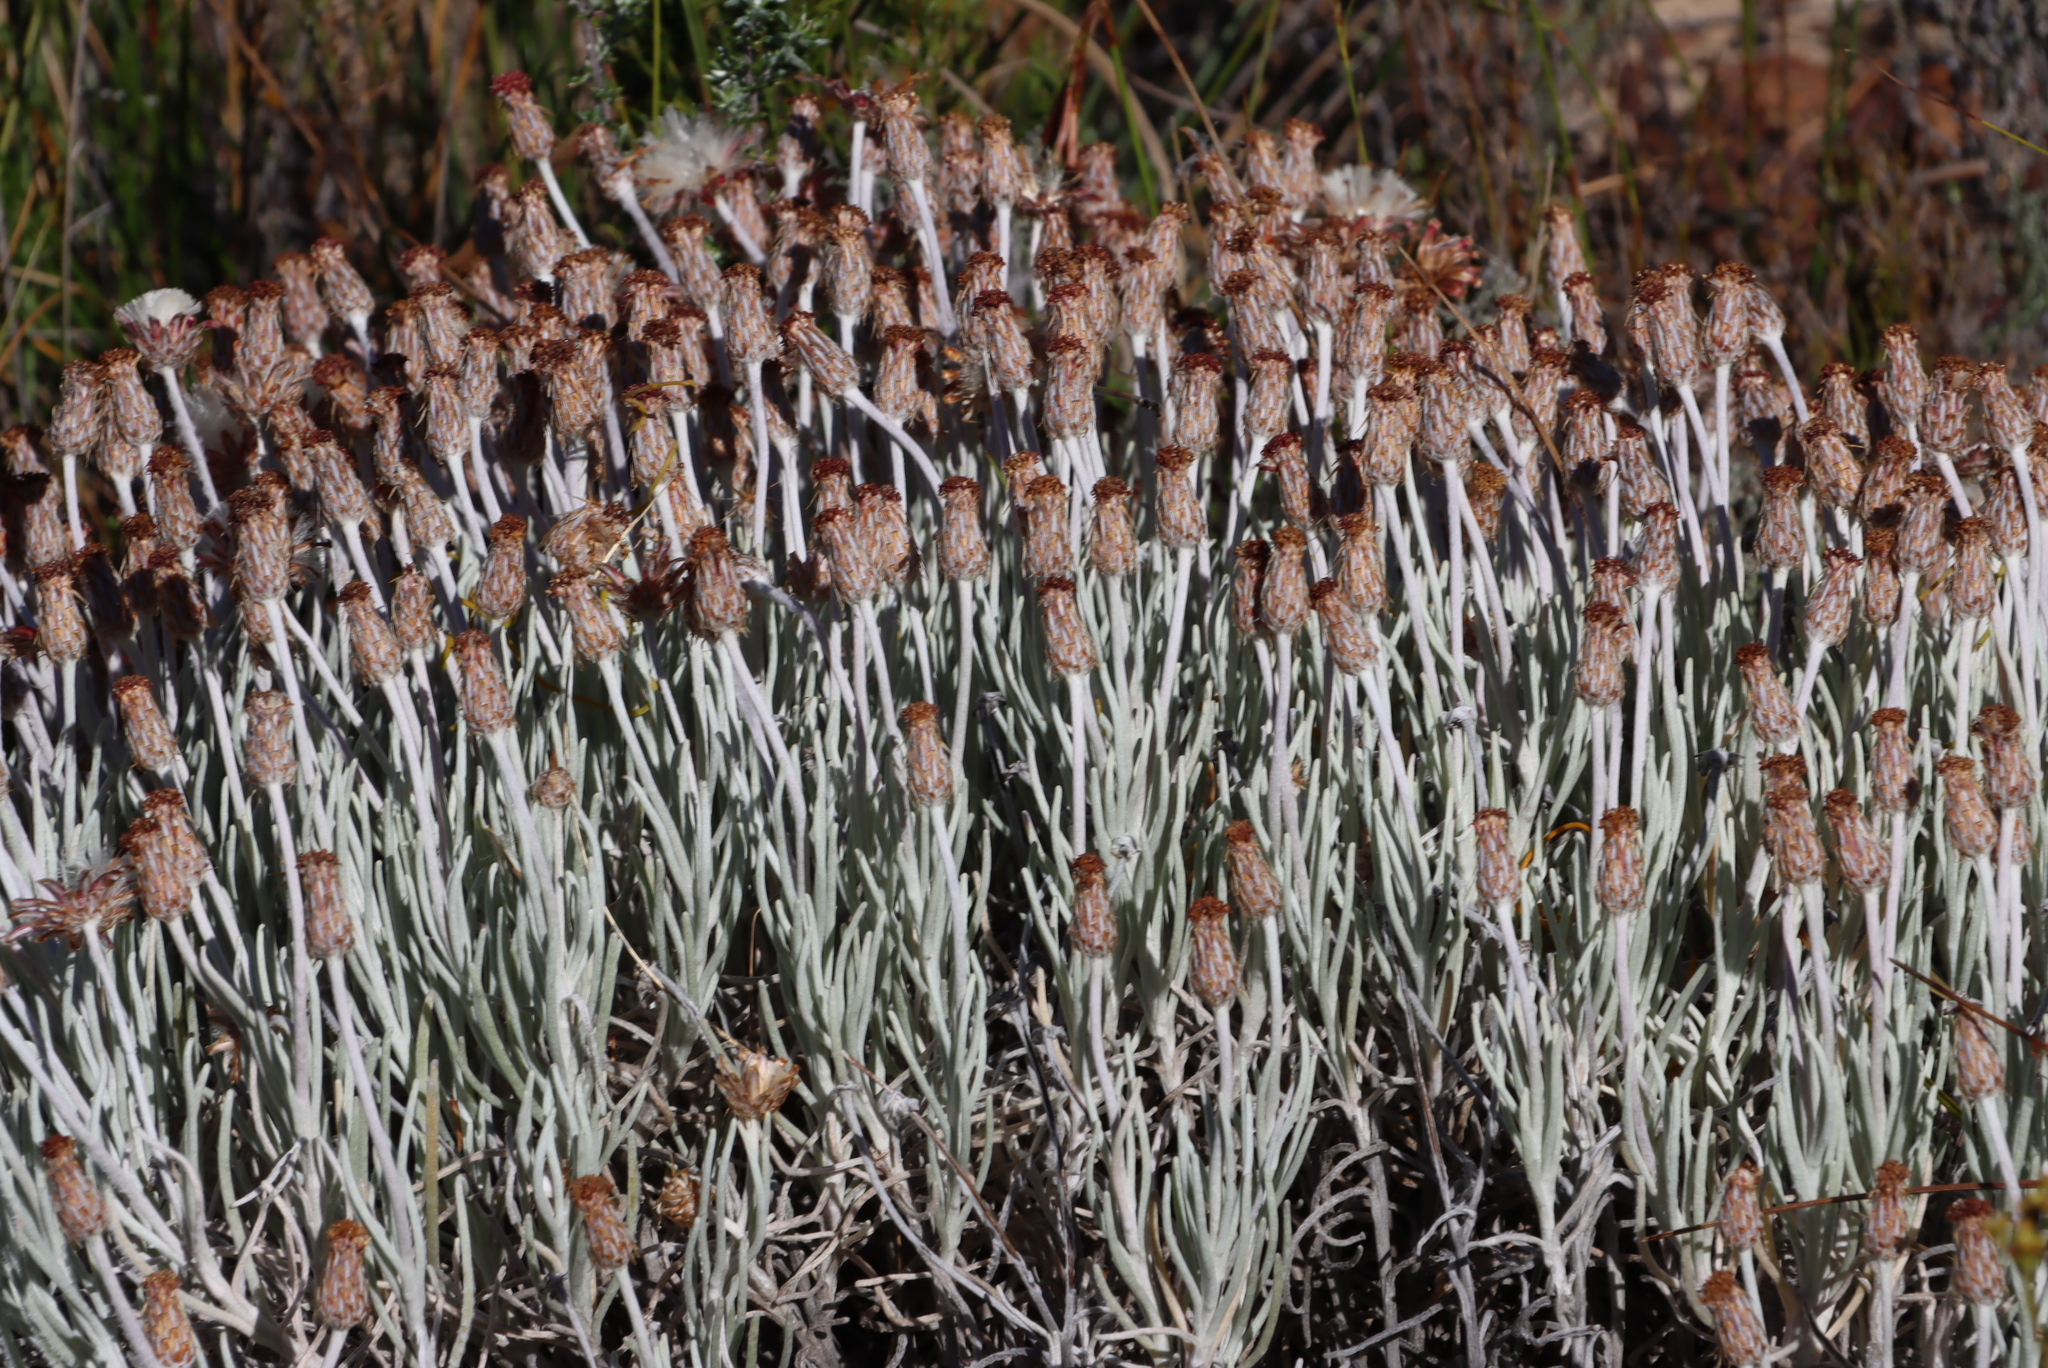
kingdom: Plantae
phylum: Tracheophyta
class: Magnoliopsida
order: Asterales
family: Asteraceae
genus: Syncarpha
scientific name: Syncarpha gnaphaloides
